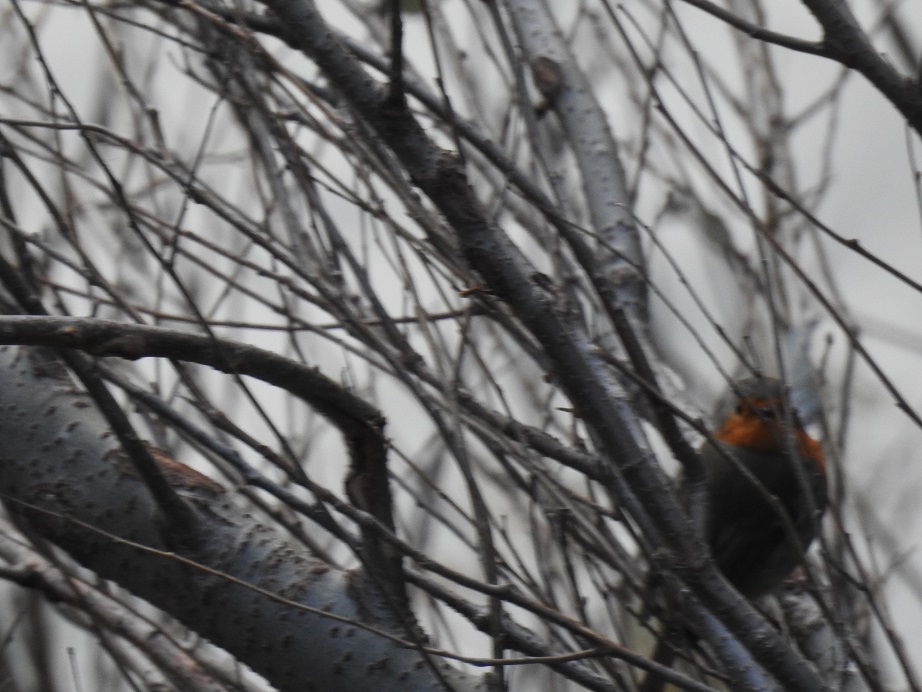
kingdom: Animalia
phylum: Chordata
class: Aves
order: Passeriformes
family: Muscicapidae
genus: Erithacus
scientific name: Erithacus rubecula
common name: European robin
